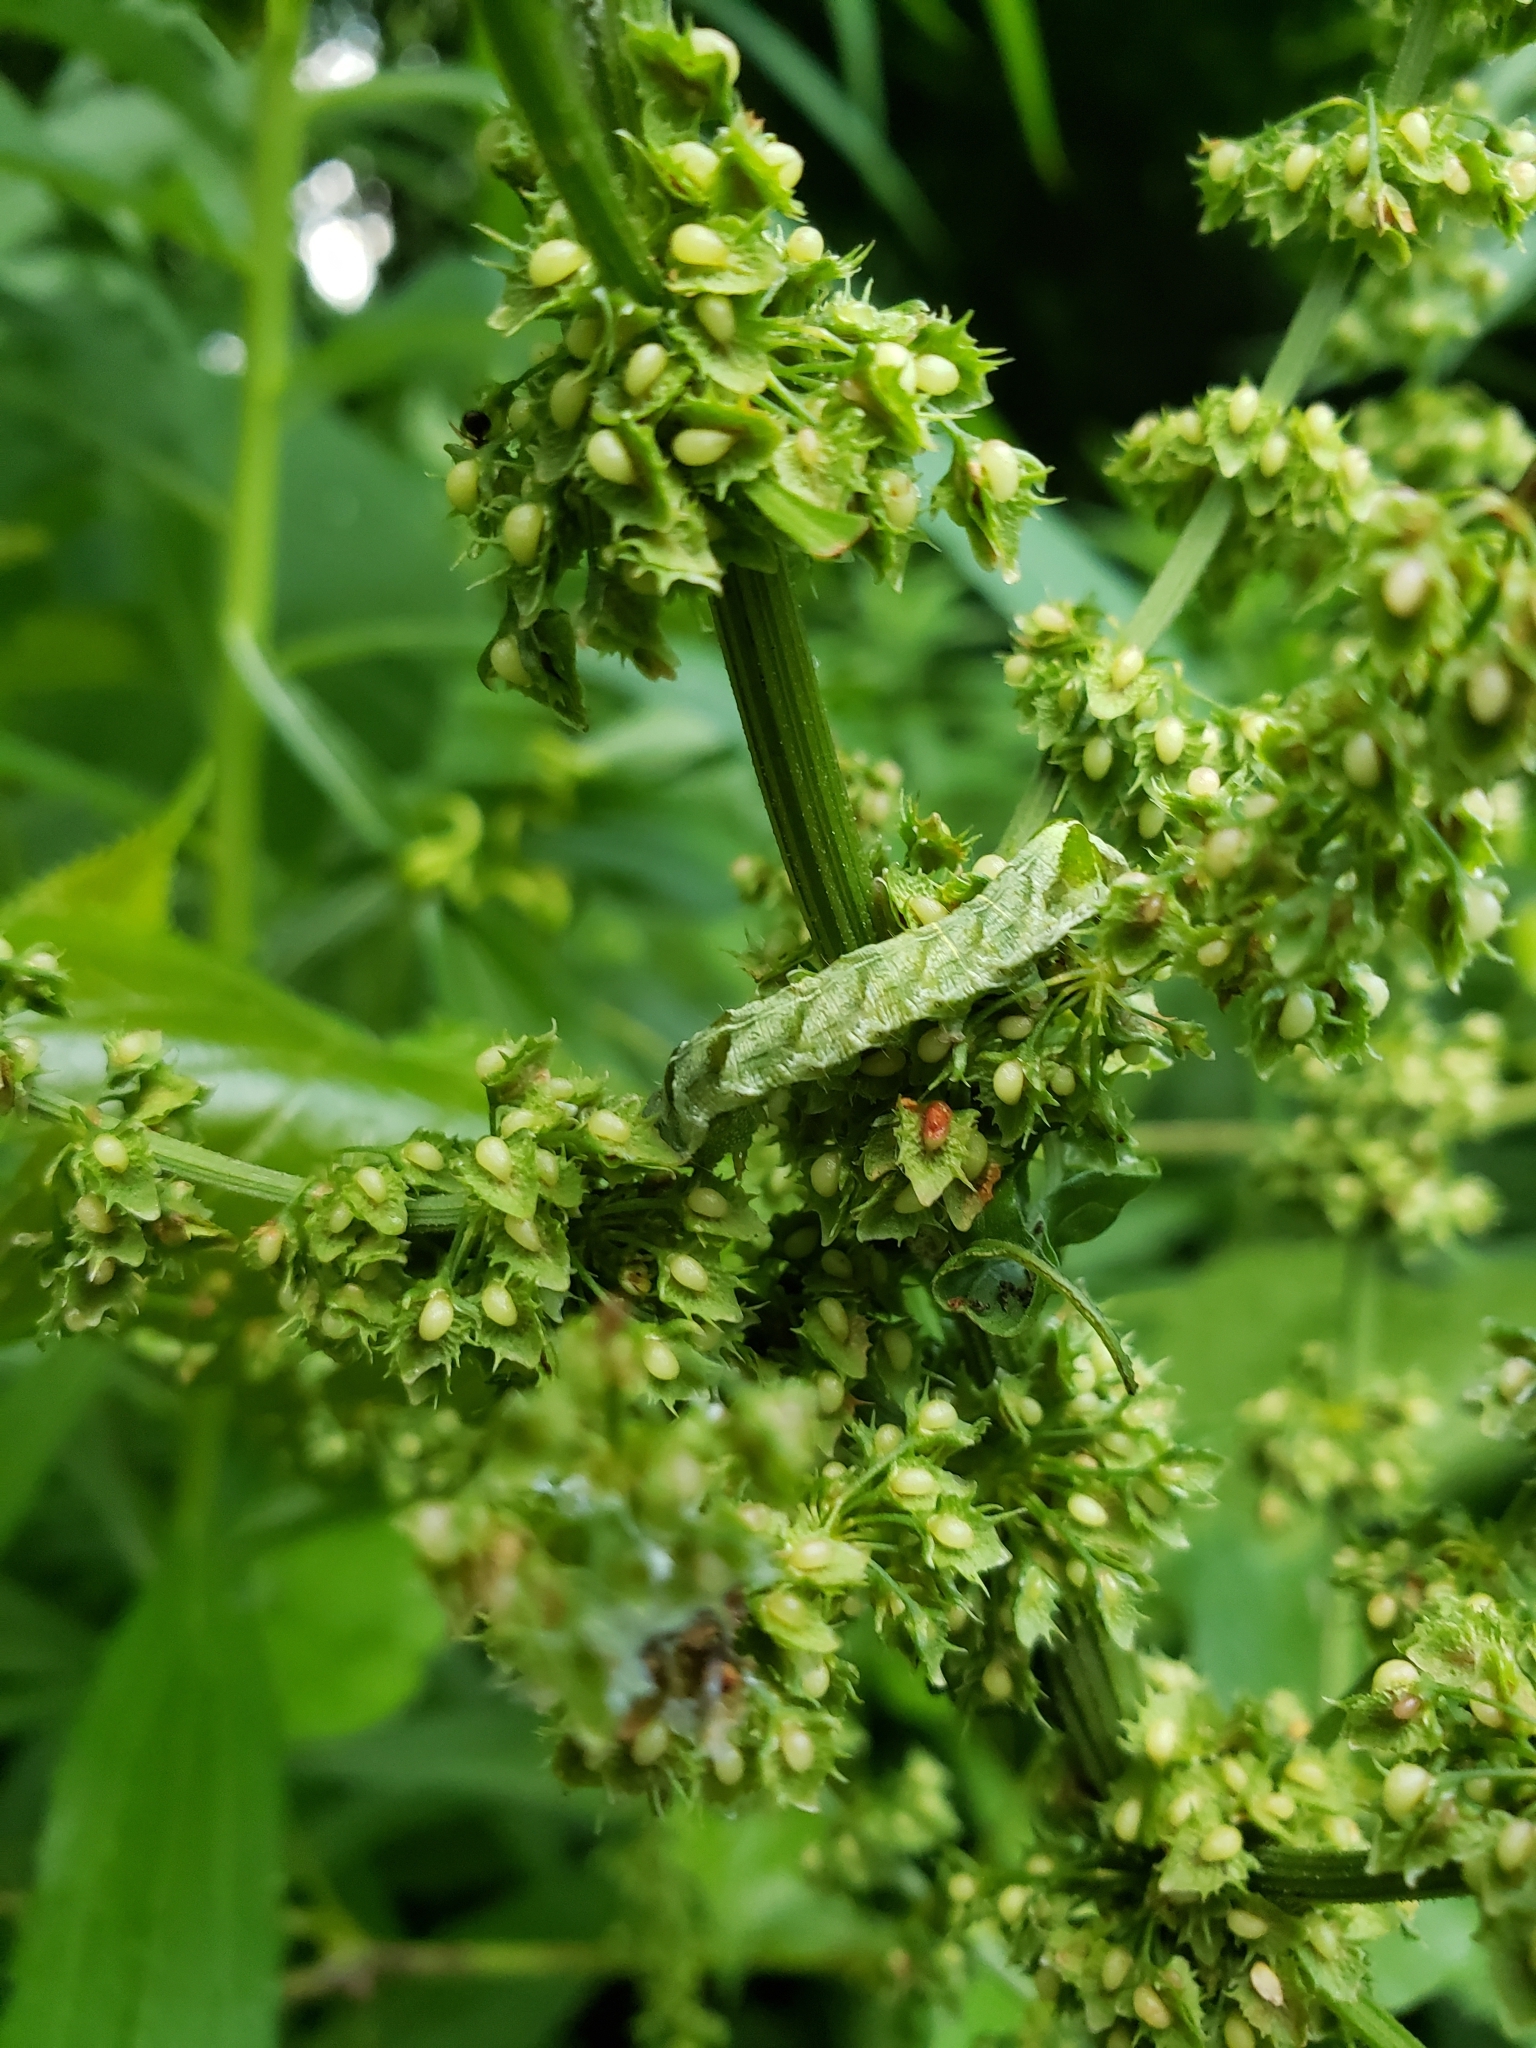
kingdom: Animalia
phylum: Arthropoda
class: Insecta
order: Lepidoptera
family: Noctuidae
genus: Melanchra
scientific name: Melanchra adjuncta
